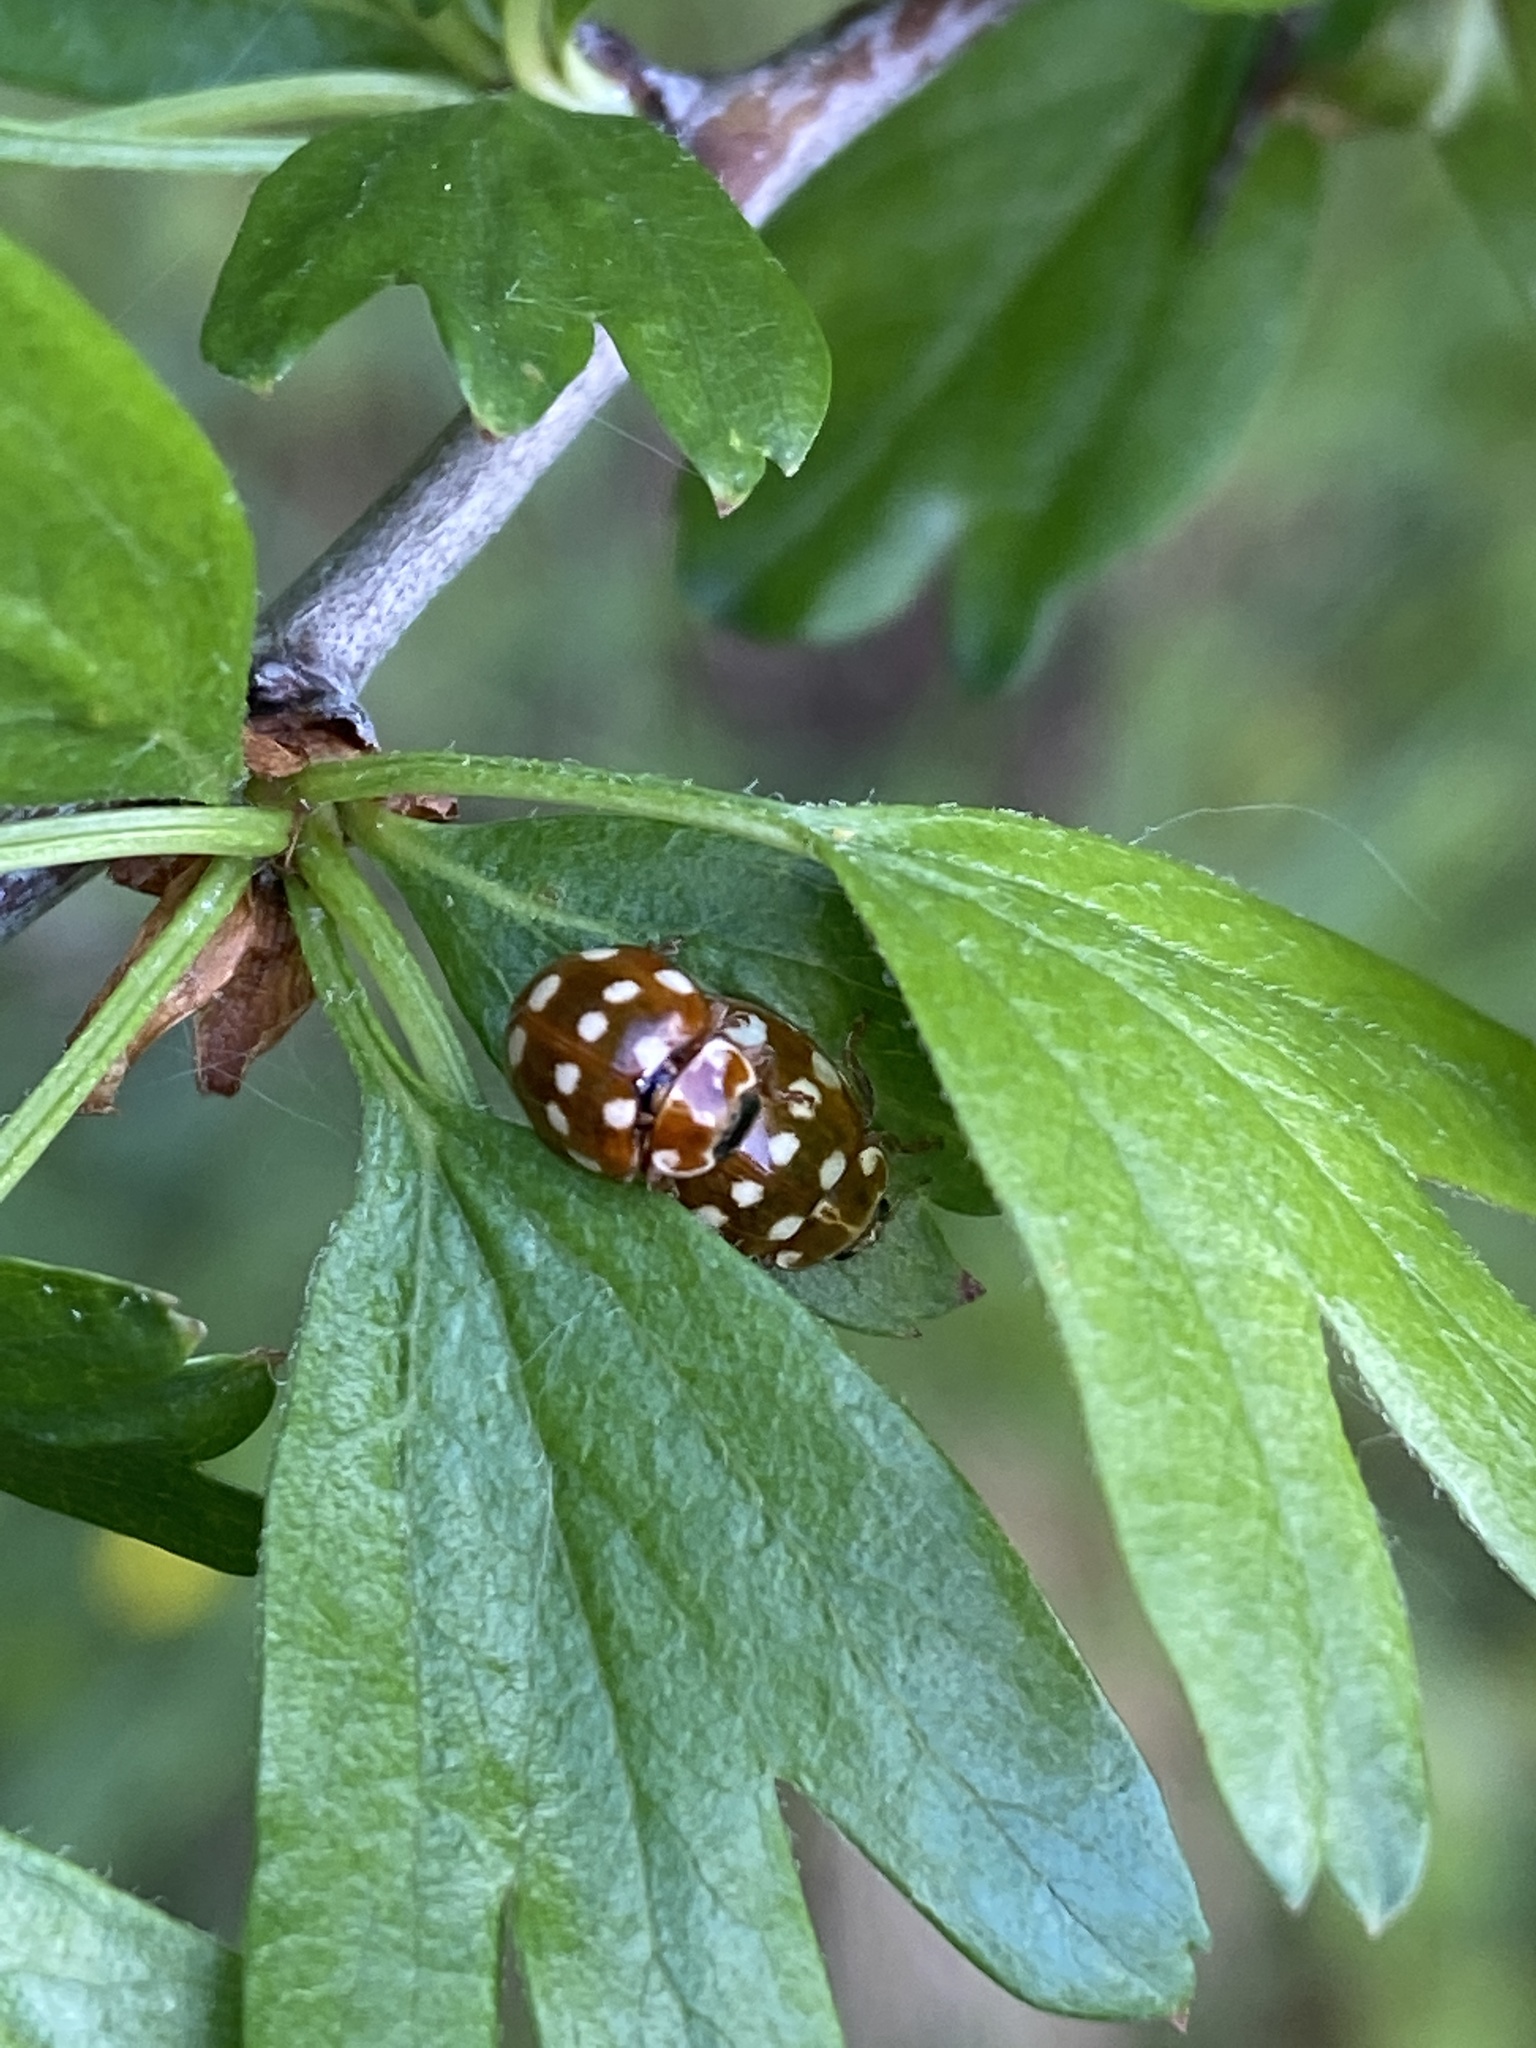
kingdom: Animalia
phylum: Arthropoda
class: Insecta
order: Coleoptera
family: Coccinellidae
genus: Calvia
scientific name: Calvia quatuordecimguttata
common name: Cream-spot ladybird
